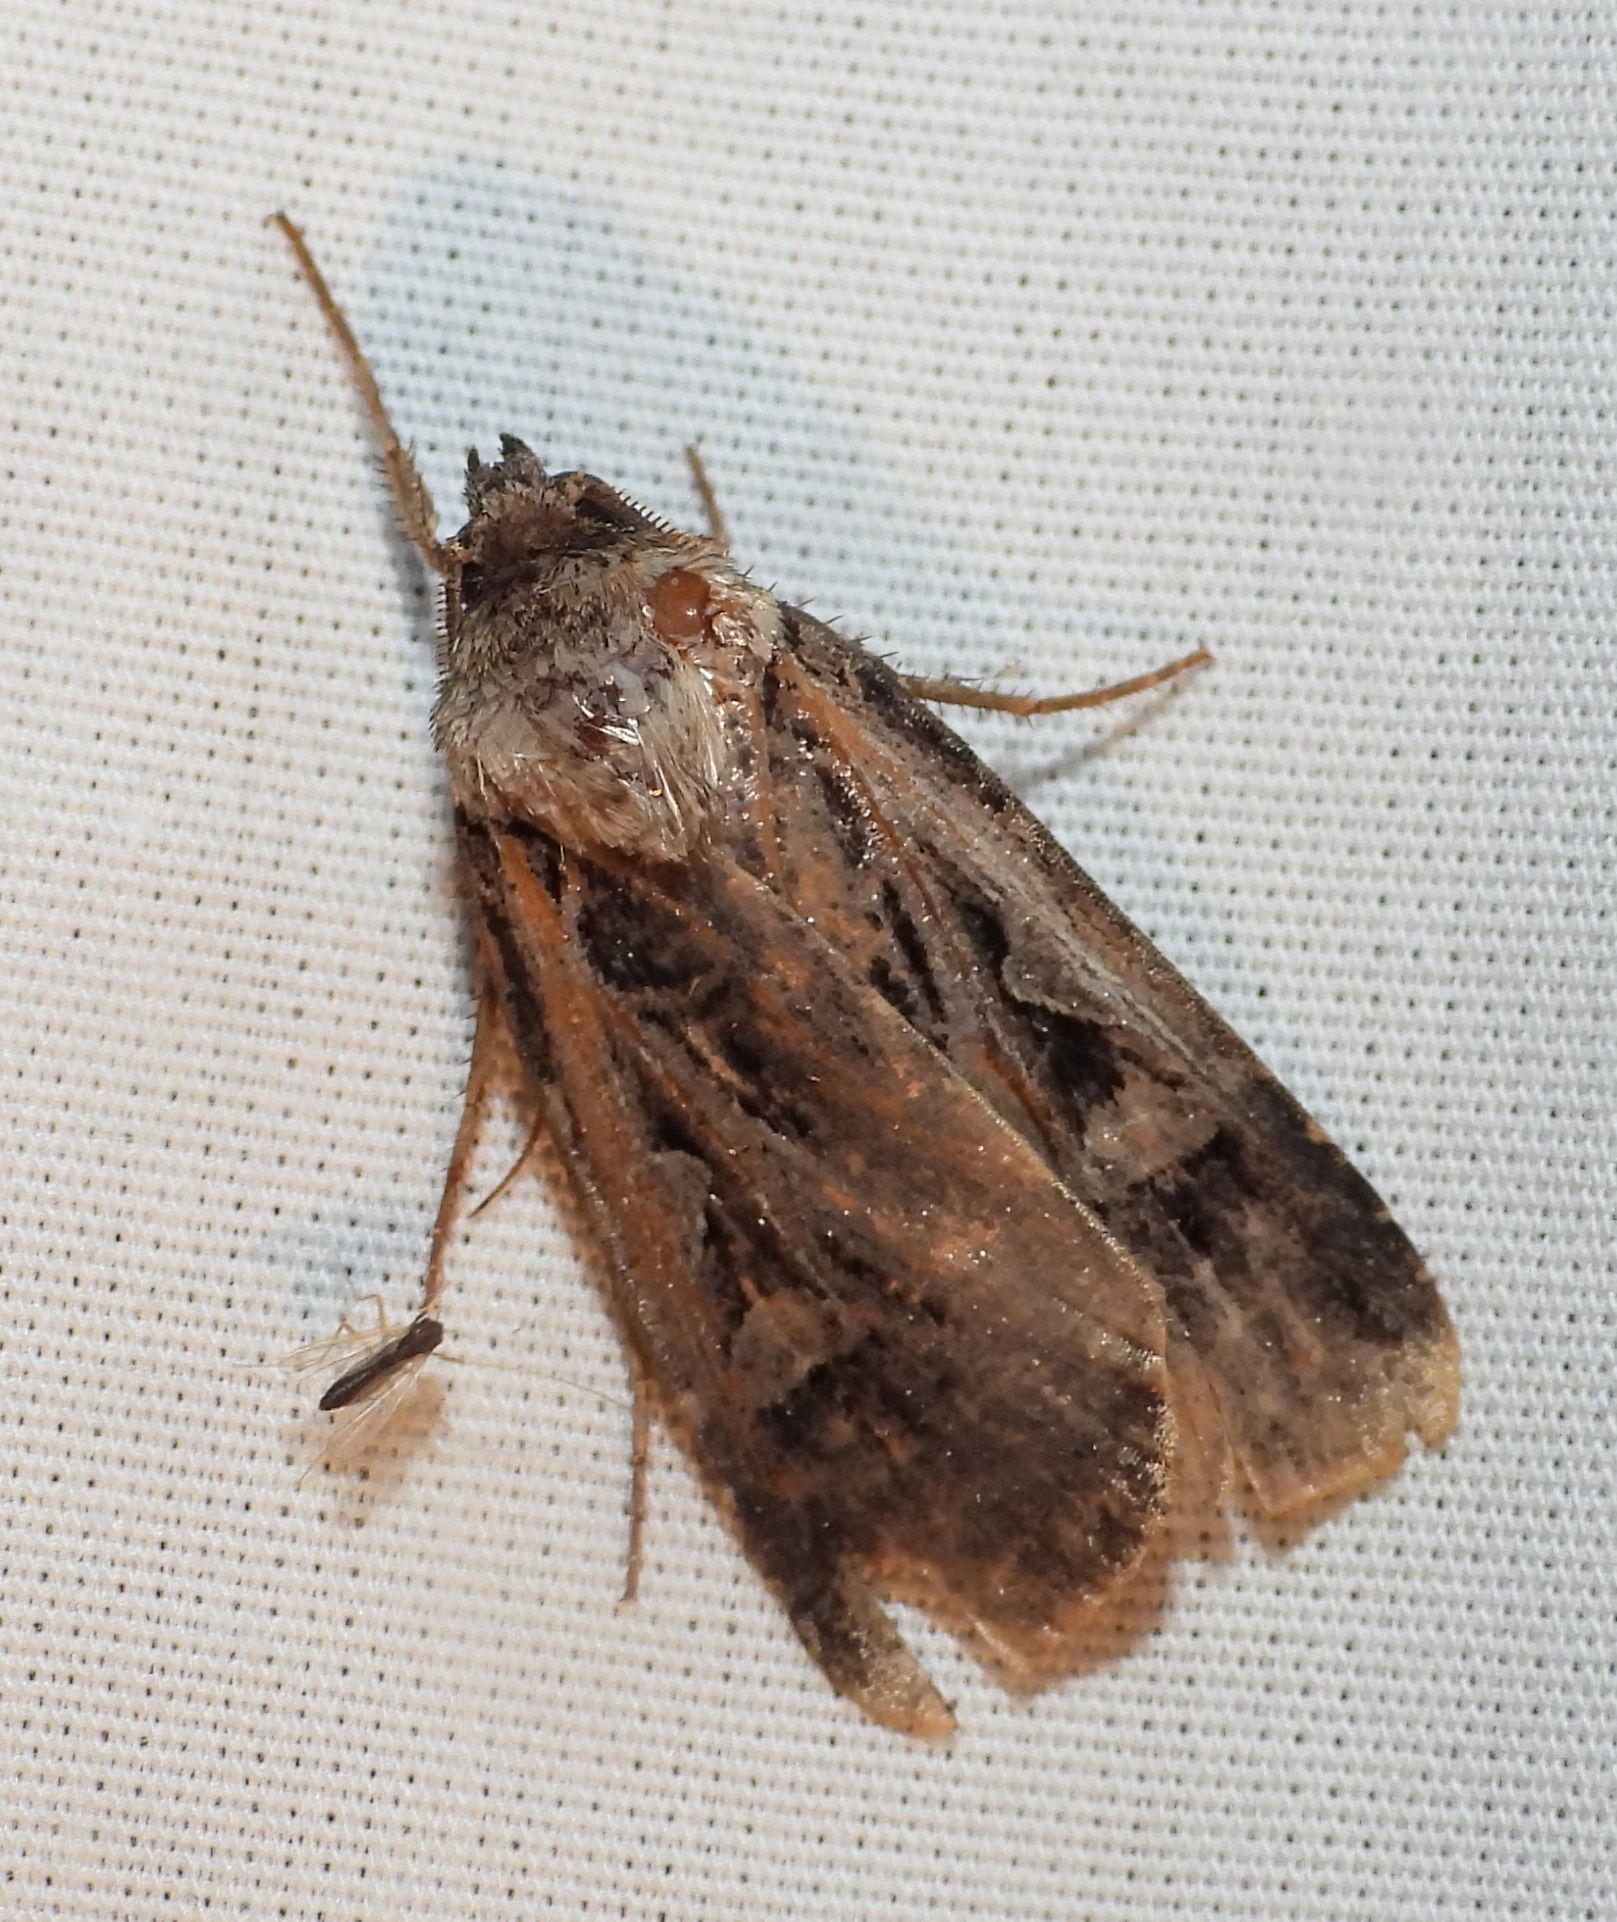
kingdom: Animalia
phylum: Arthropoda
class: Insecta
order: Lepidoptera
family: Noctuidae
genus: Feltia
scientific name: Feltia
